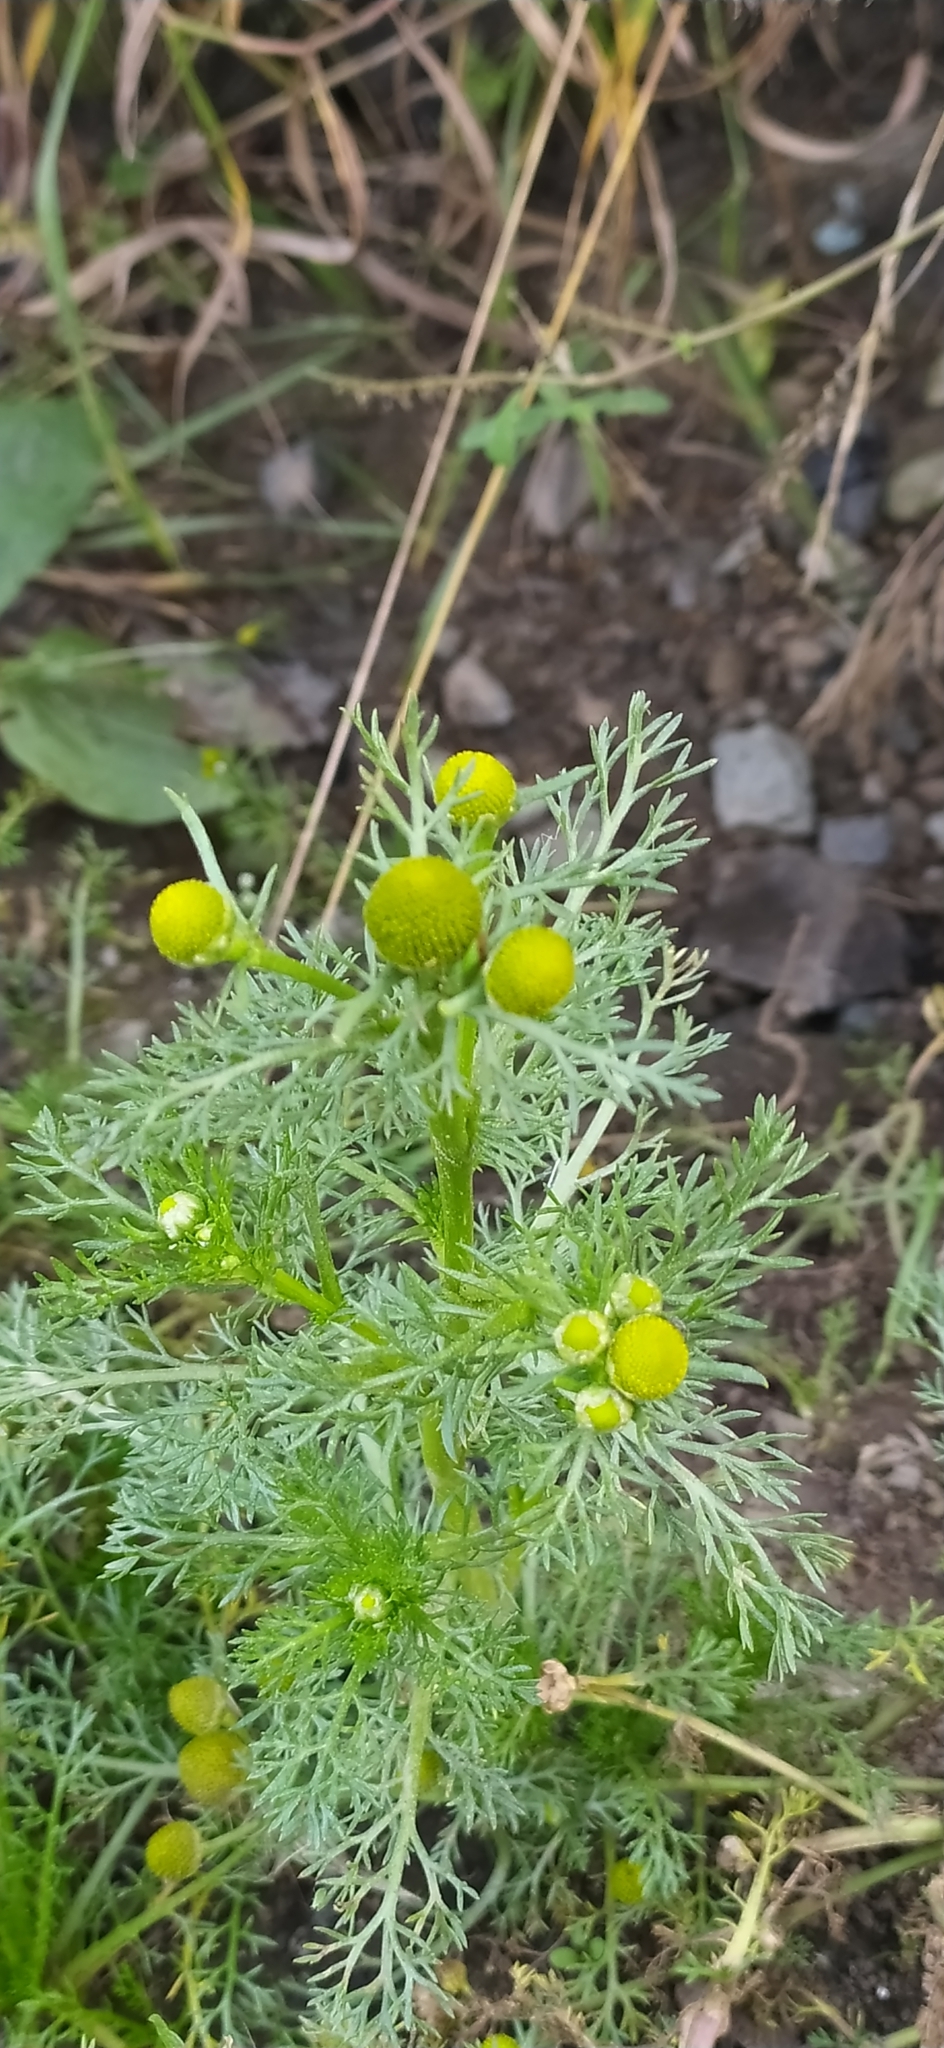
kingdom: Plantae
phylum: Tracheophyta
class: Magnoliopsida
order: Asterales
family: Asteraceae
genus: Matricaria
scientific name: Matricaria discoidea
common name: Disc mayweed
